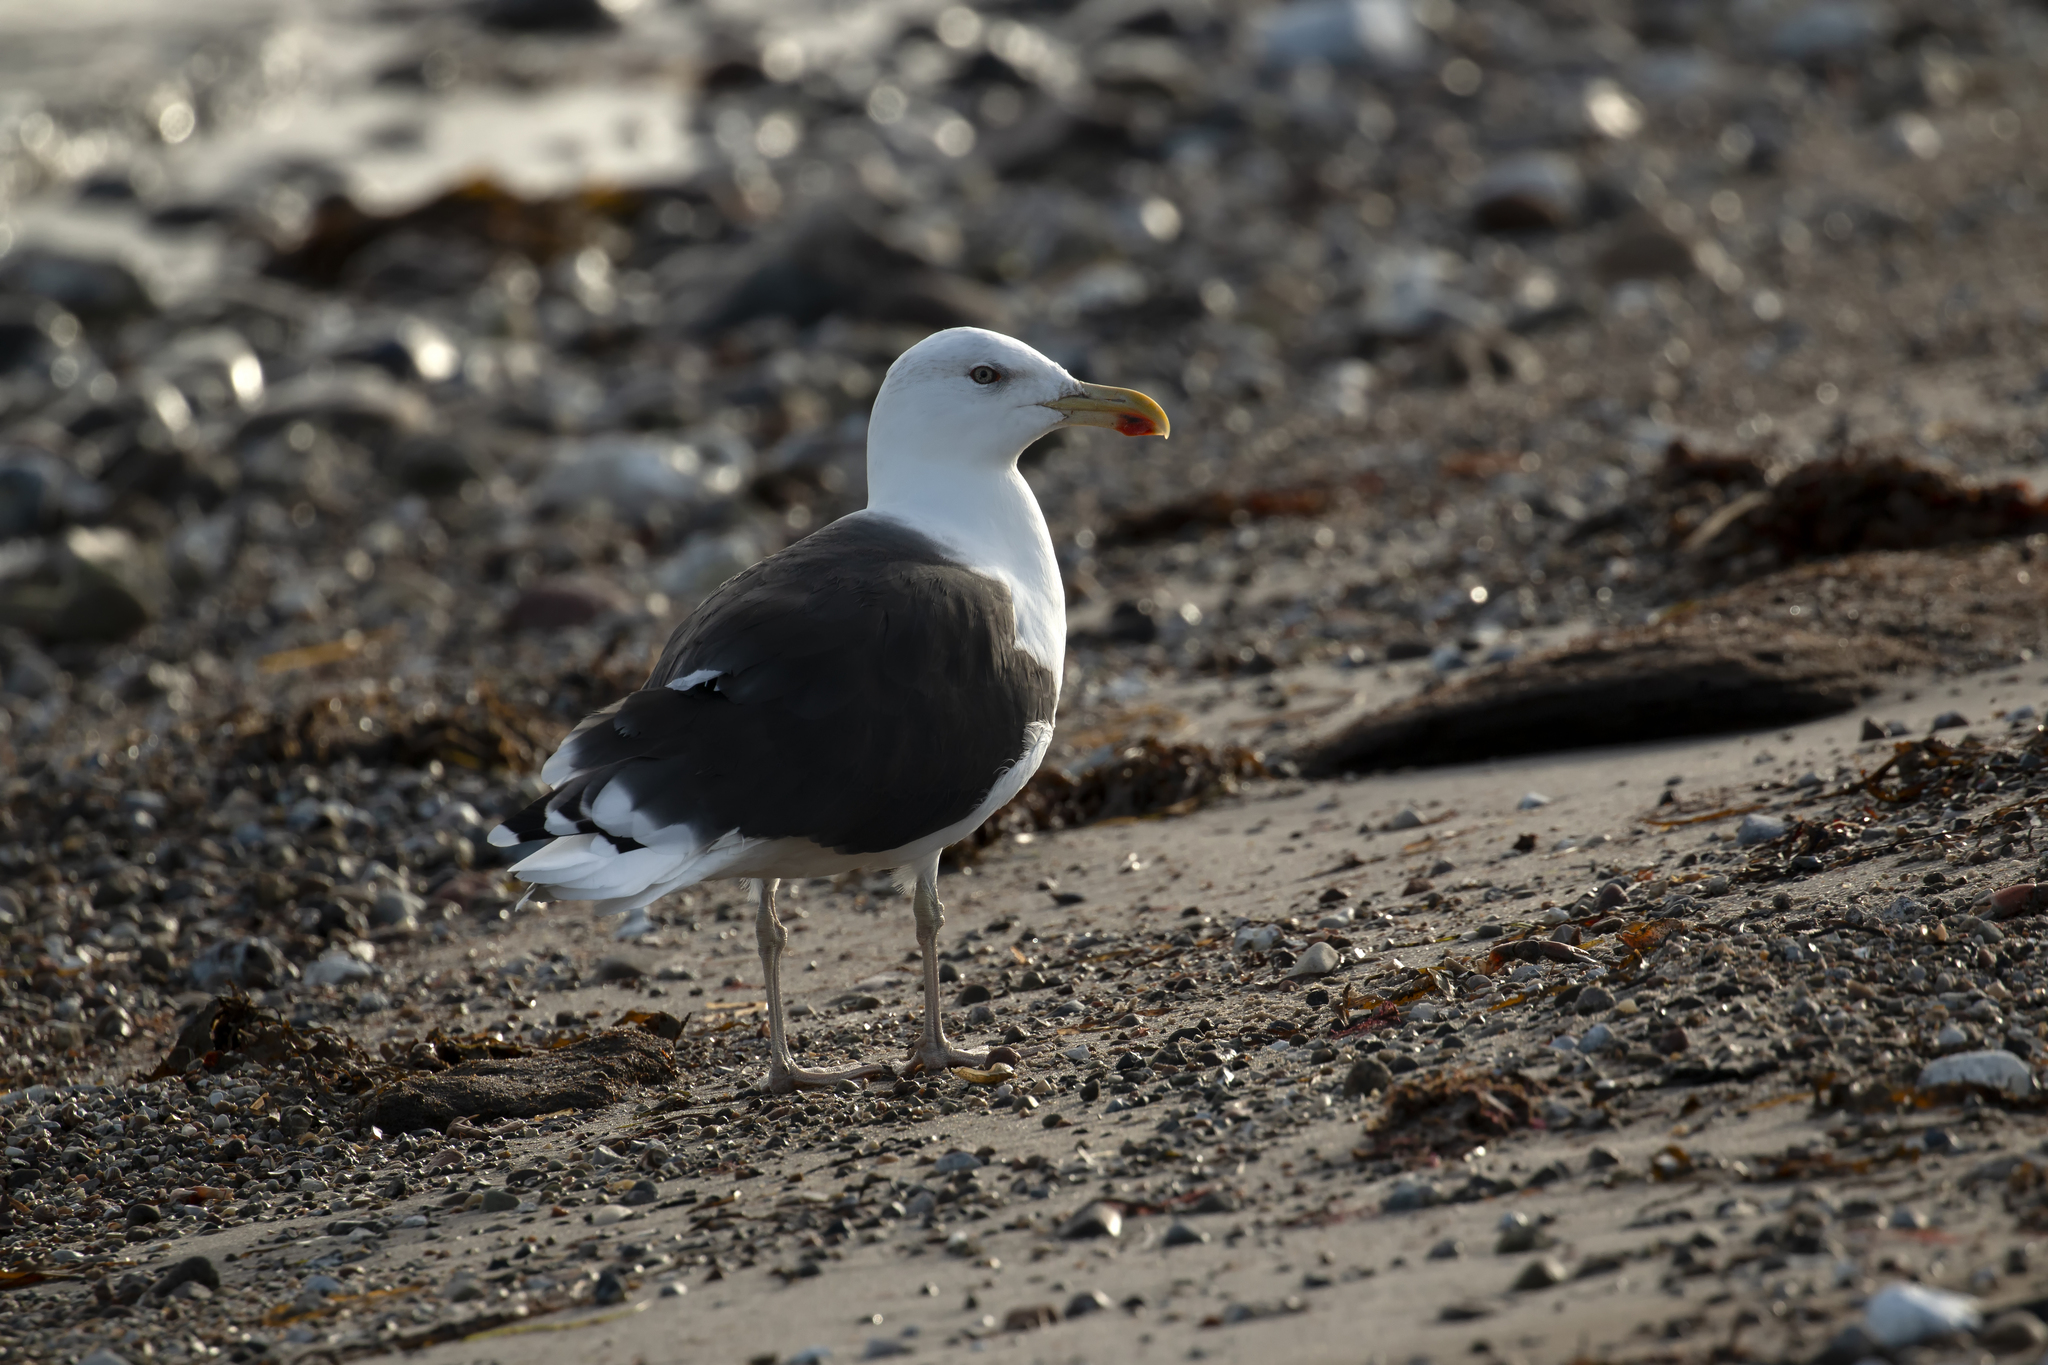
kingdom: Animalia
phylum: Chordata
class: Aves
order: Charadriiformes
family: Laridae
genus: Larus
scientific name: Larus marinus
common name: Great black-backed gull
